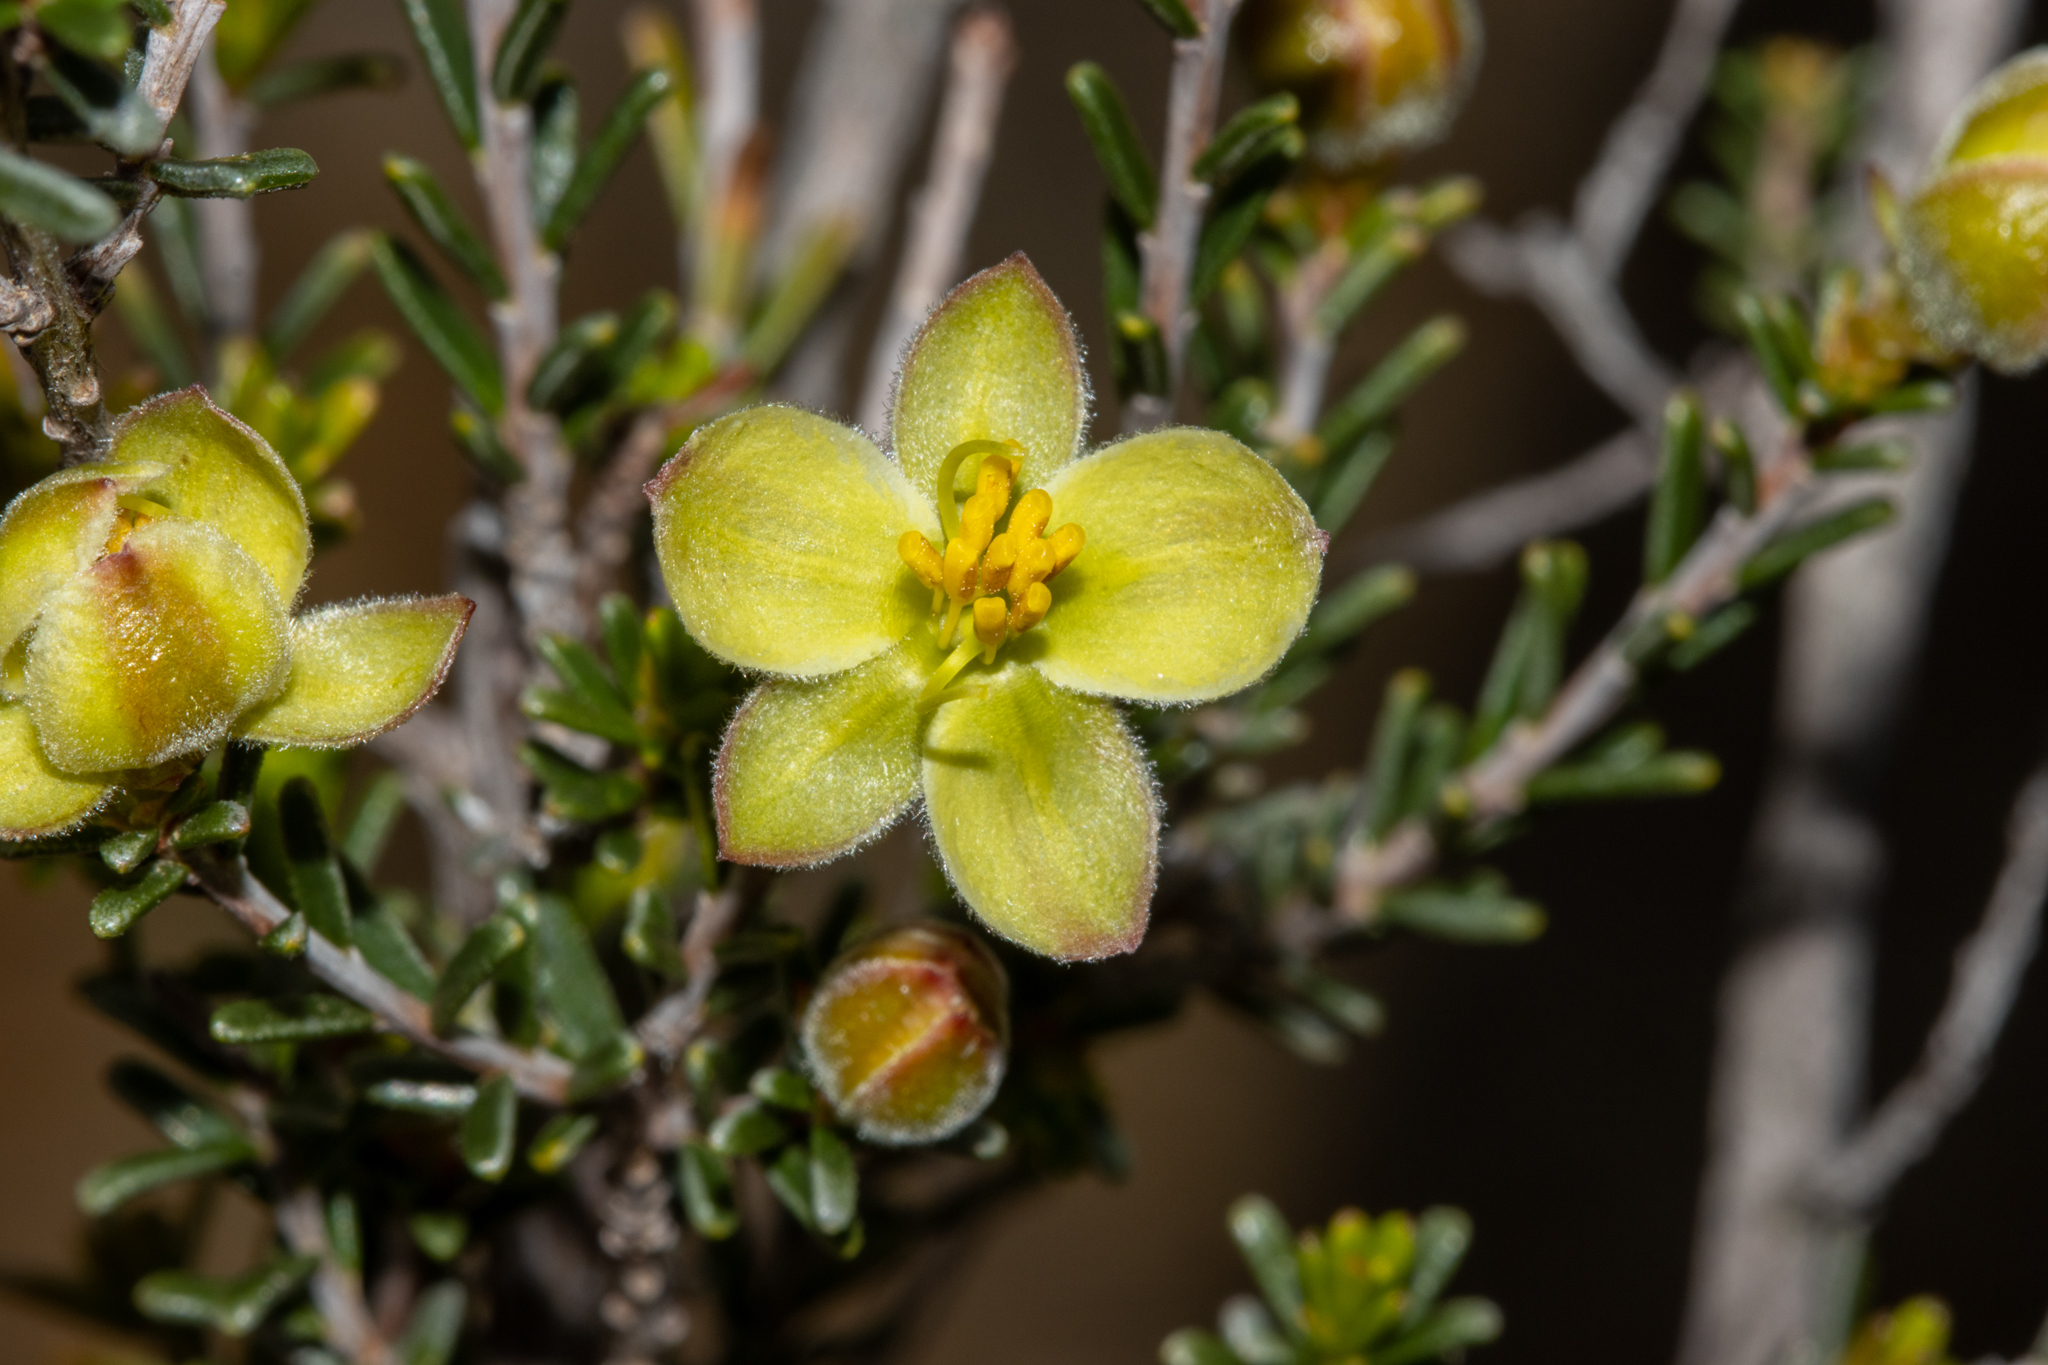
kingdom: Plantae
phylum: Tracheophyta
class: Magnoliopsida
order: Dilleniales
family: Dilleniaceae
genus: Hibbertia
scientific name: Hibbertia glabriuscula
